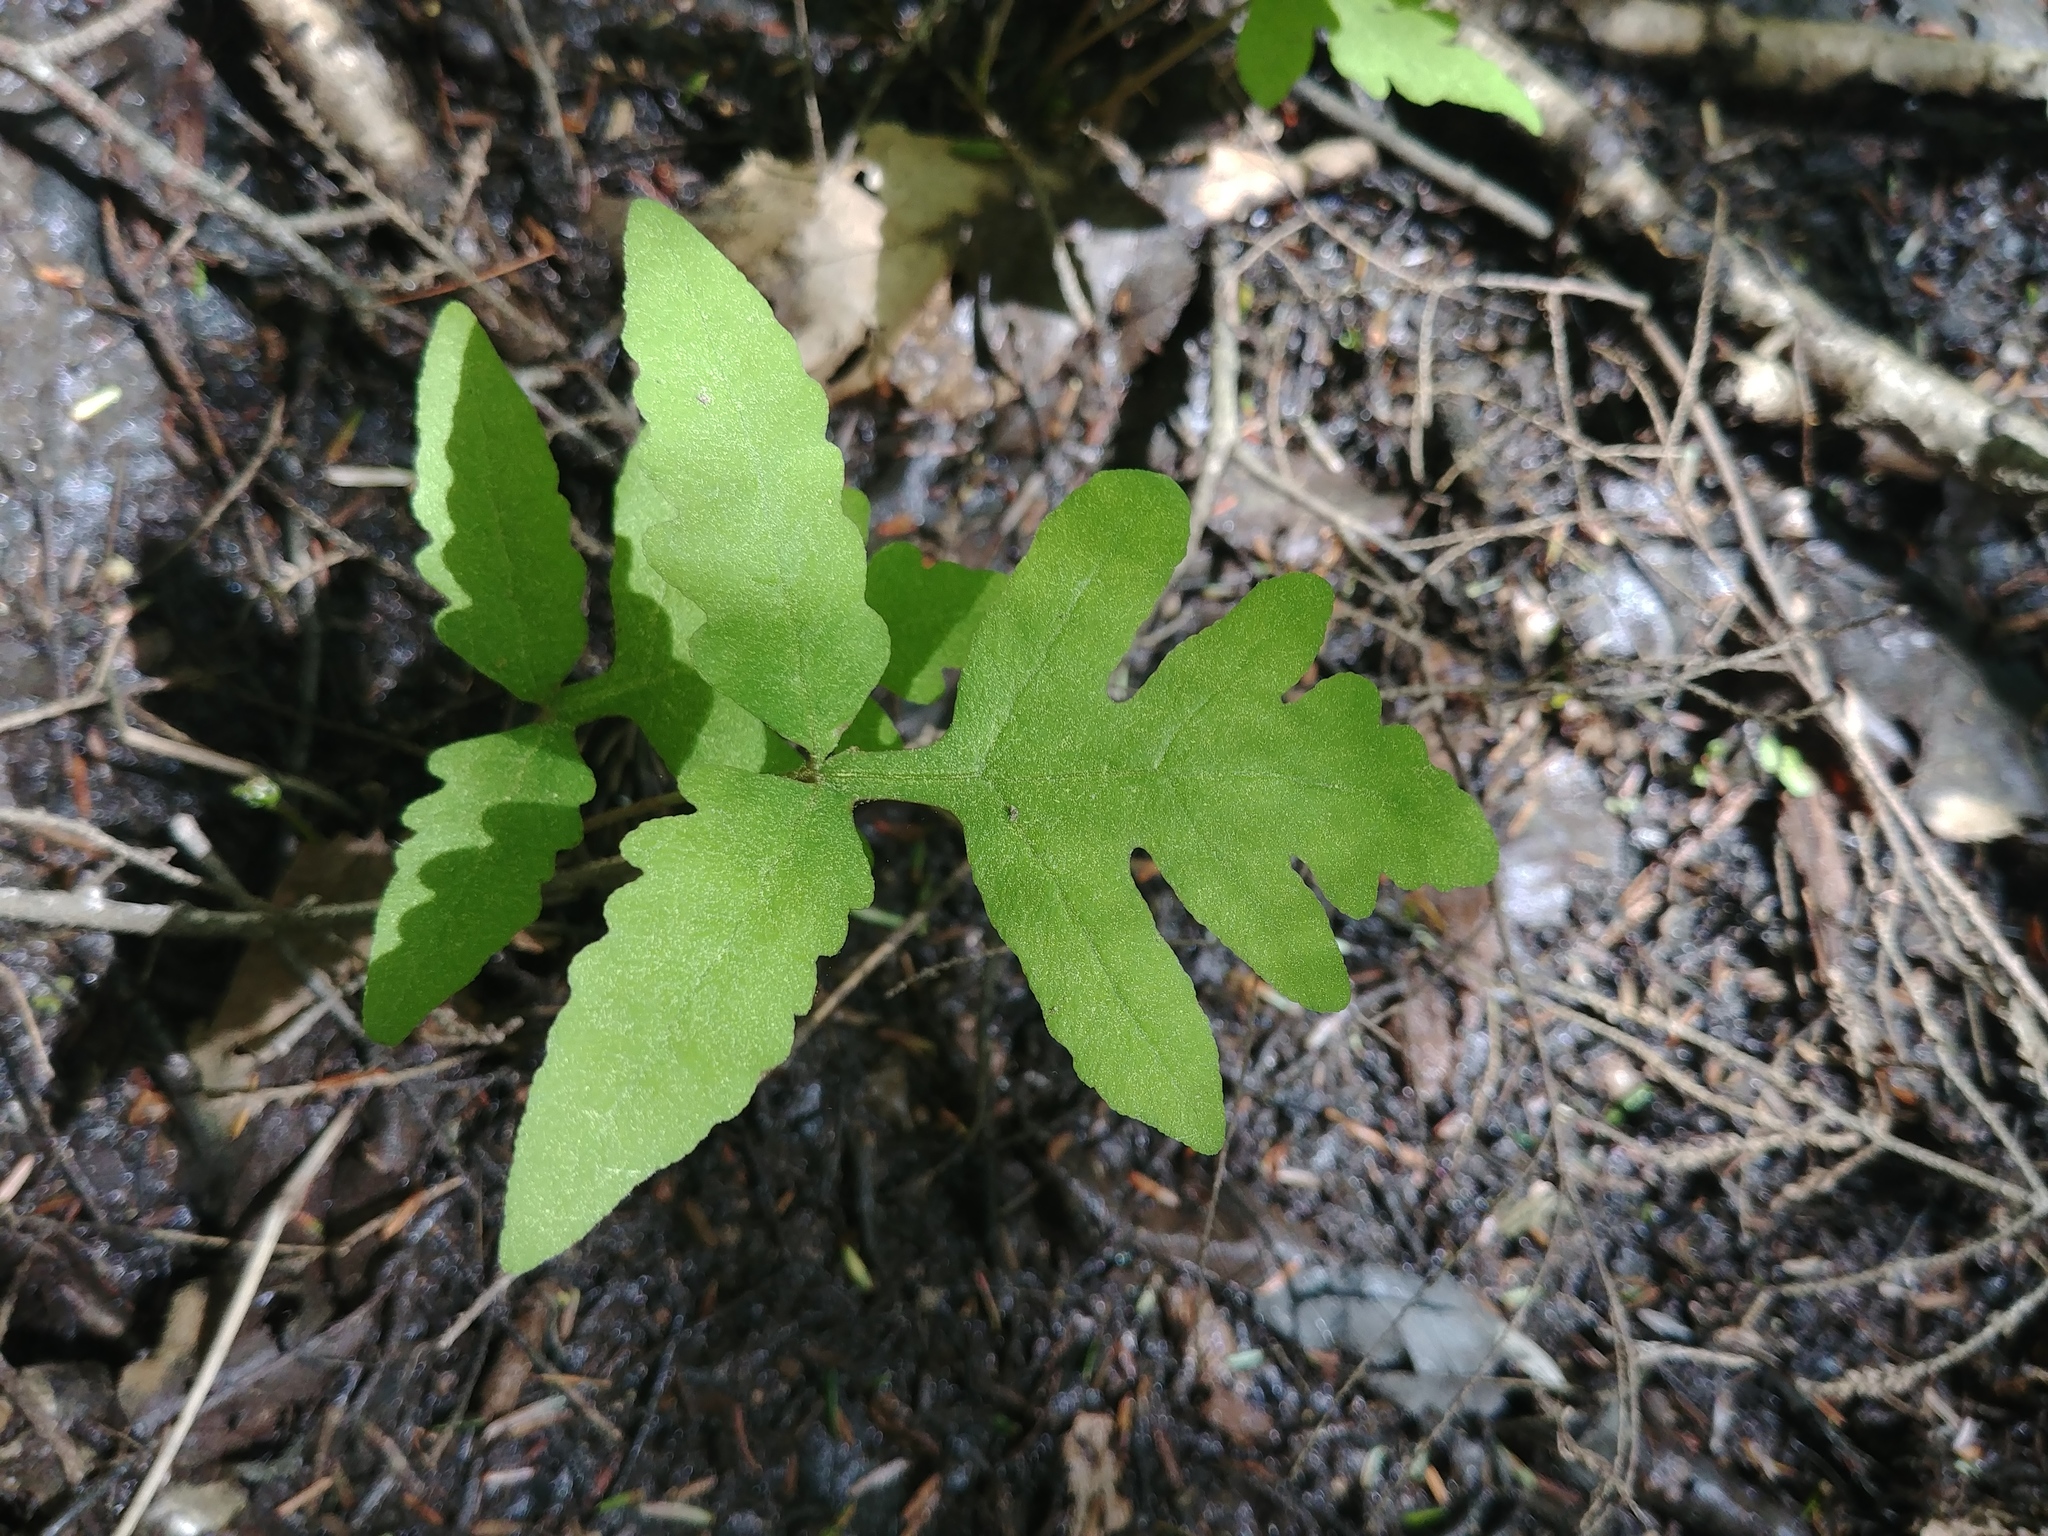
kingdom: Plantae
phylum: Tracheophyta
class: Polypodiopsida
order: Polypodiales
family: Onocleaceae
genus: Onoclea
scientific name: Onoclea sensibilis
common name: Sensitive fern
